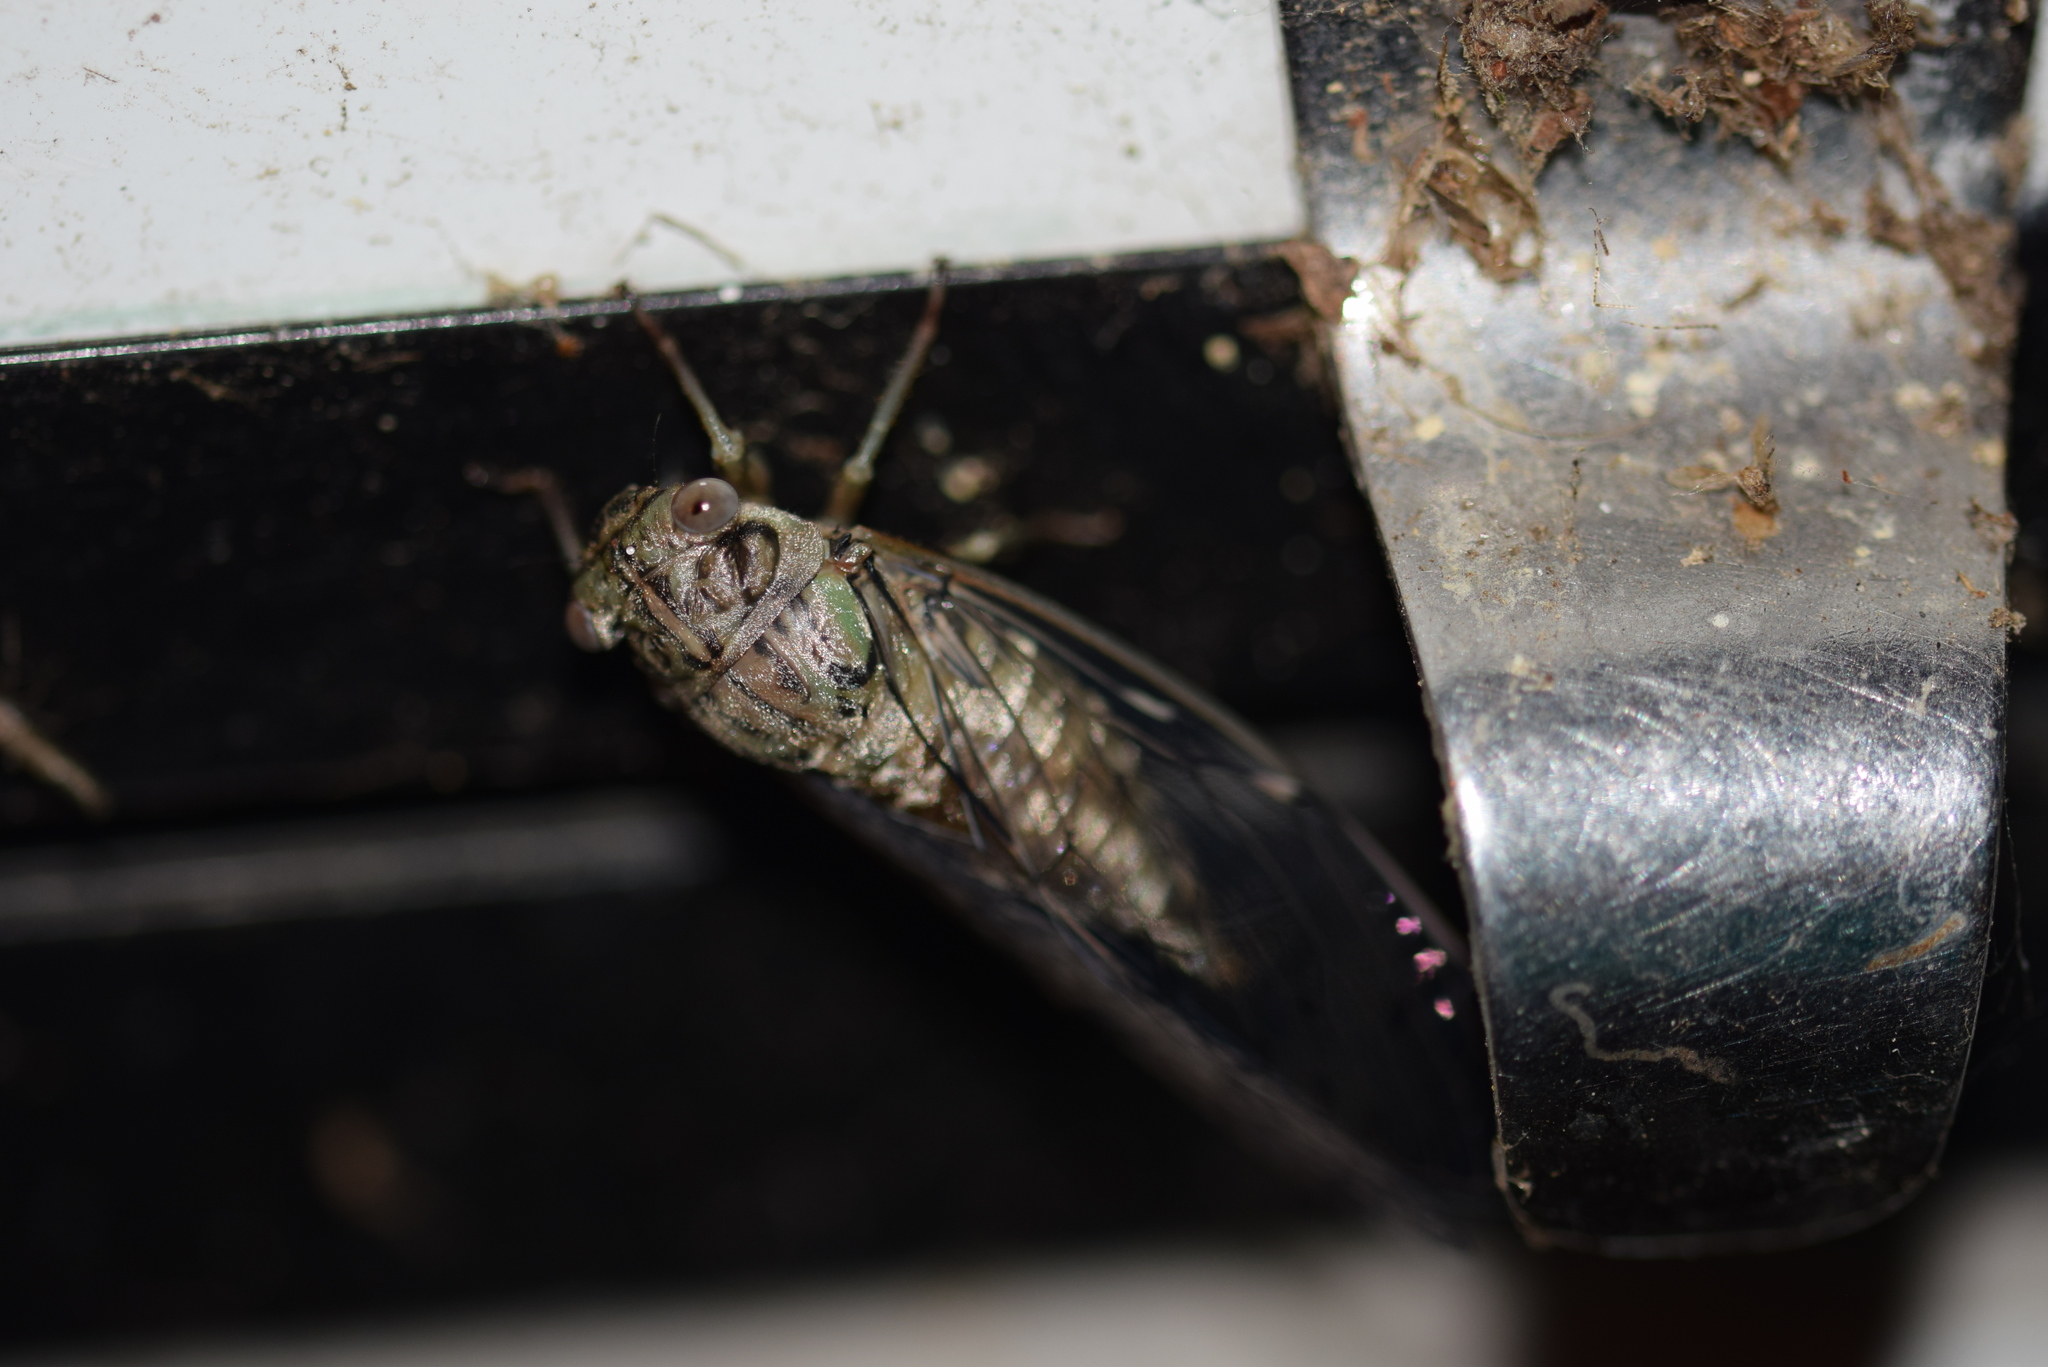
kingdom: Animalia
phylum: Arthropoda
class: Insecta
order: Hemiptera
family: Cicadidae
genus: Neocicada
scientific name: Neocicada hieroglyphica
